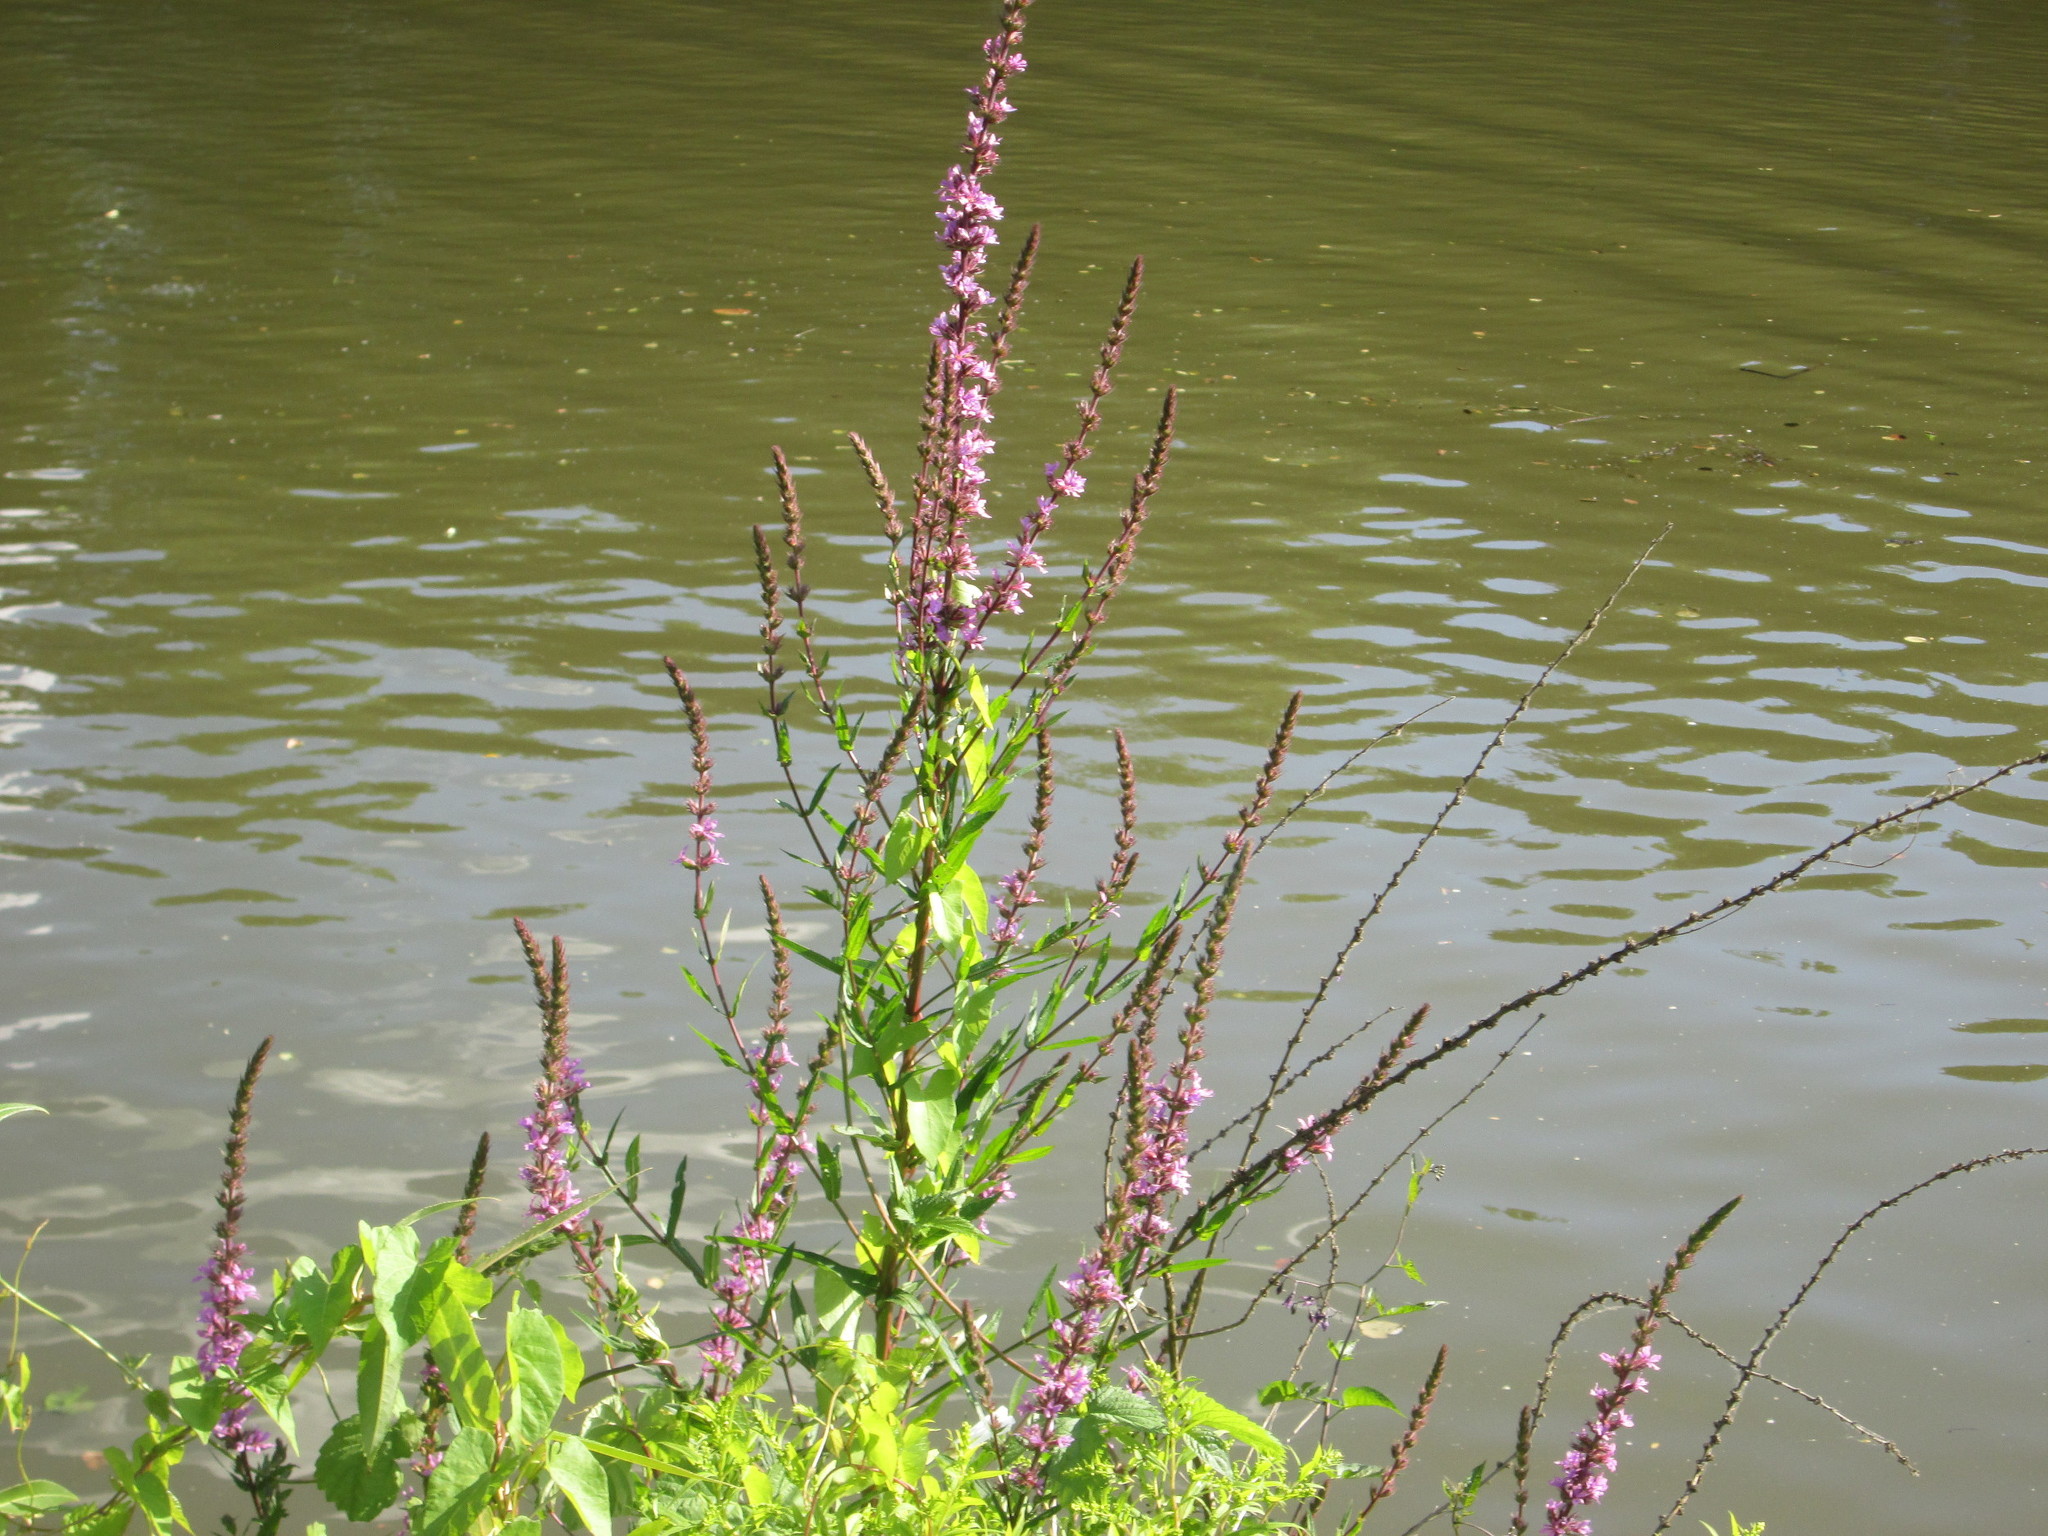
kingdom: Plantae
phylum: Tracheophyta
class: Magnoliopsida
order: Myrtales
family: Lythraceae
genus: Lythrum
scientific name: Lythrum salicaria
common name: Purple loosestrife
